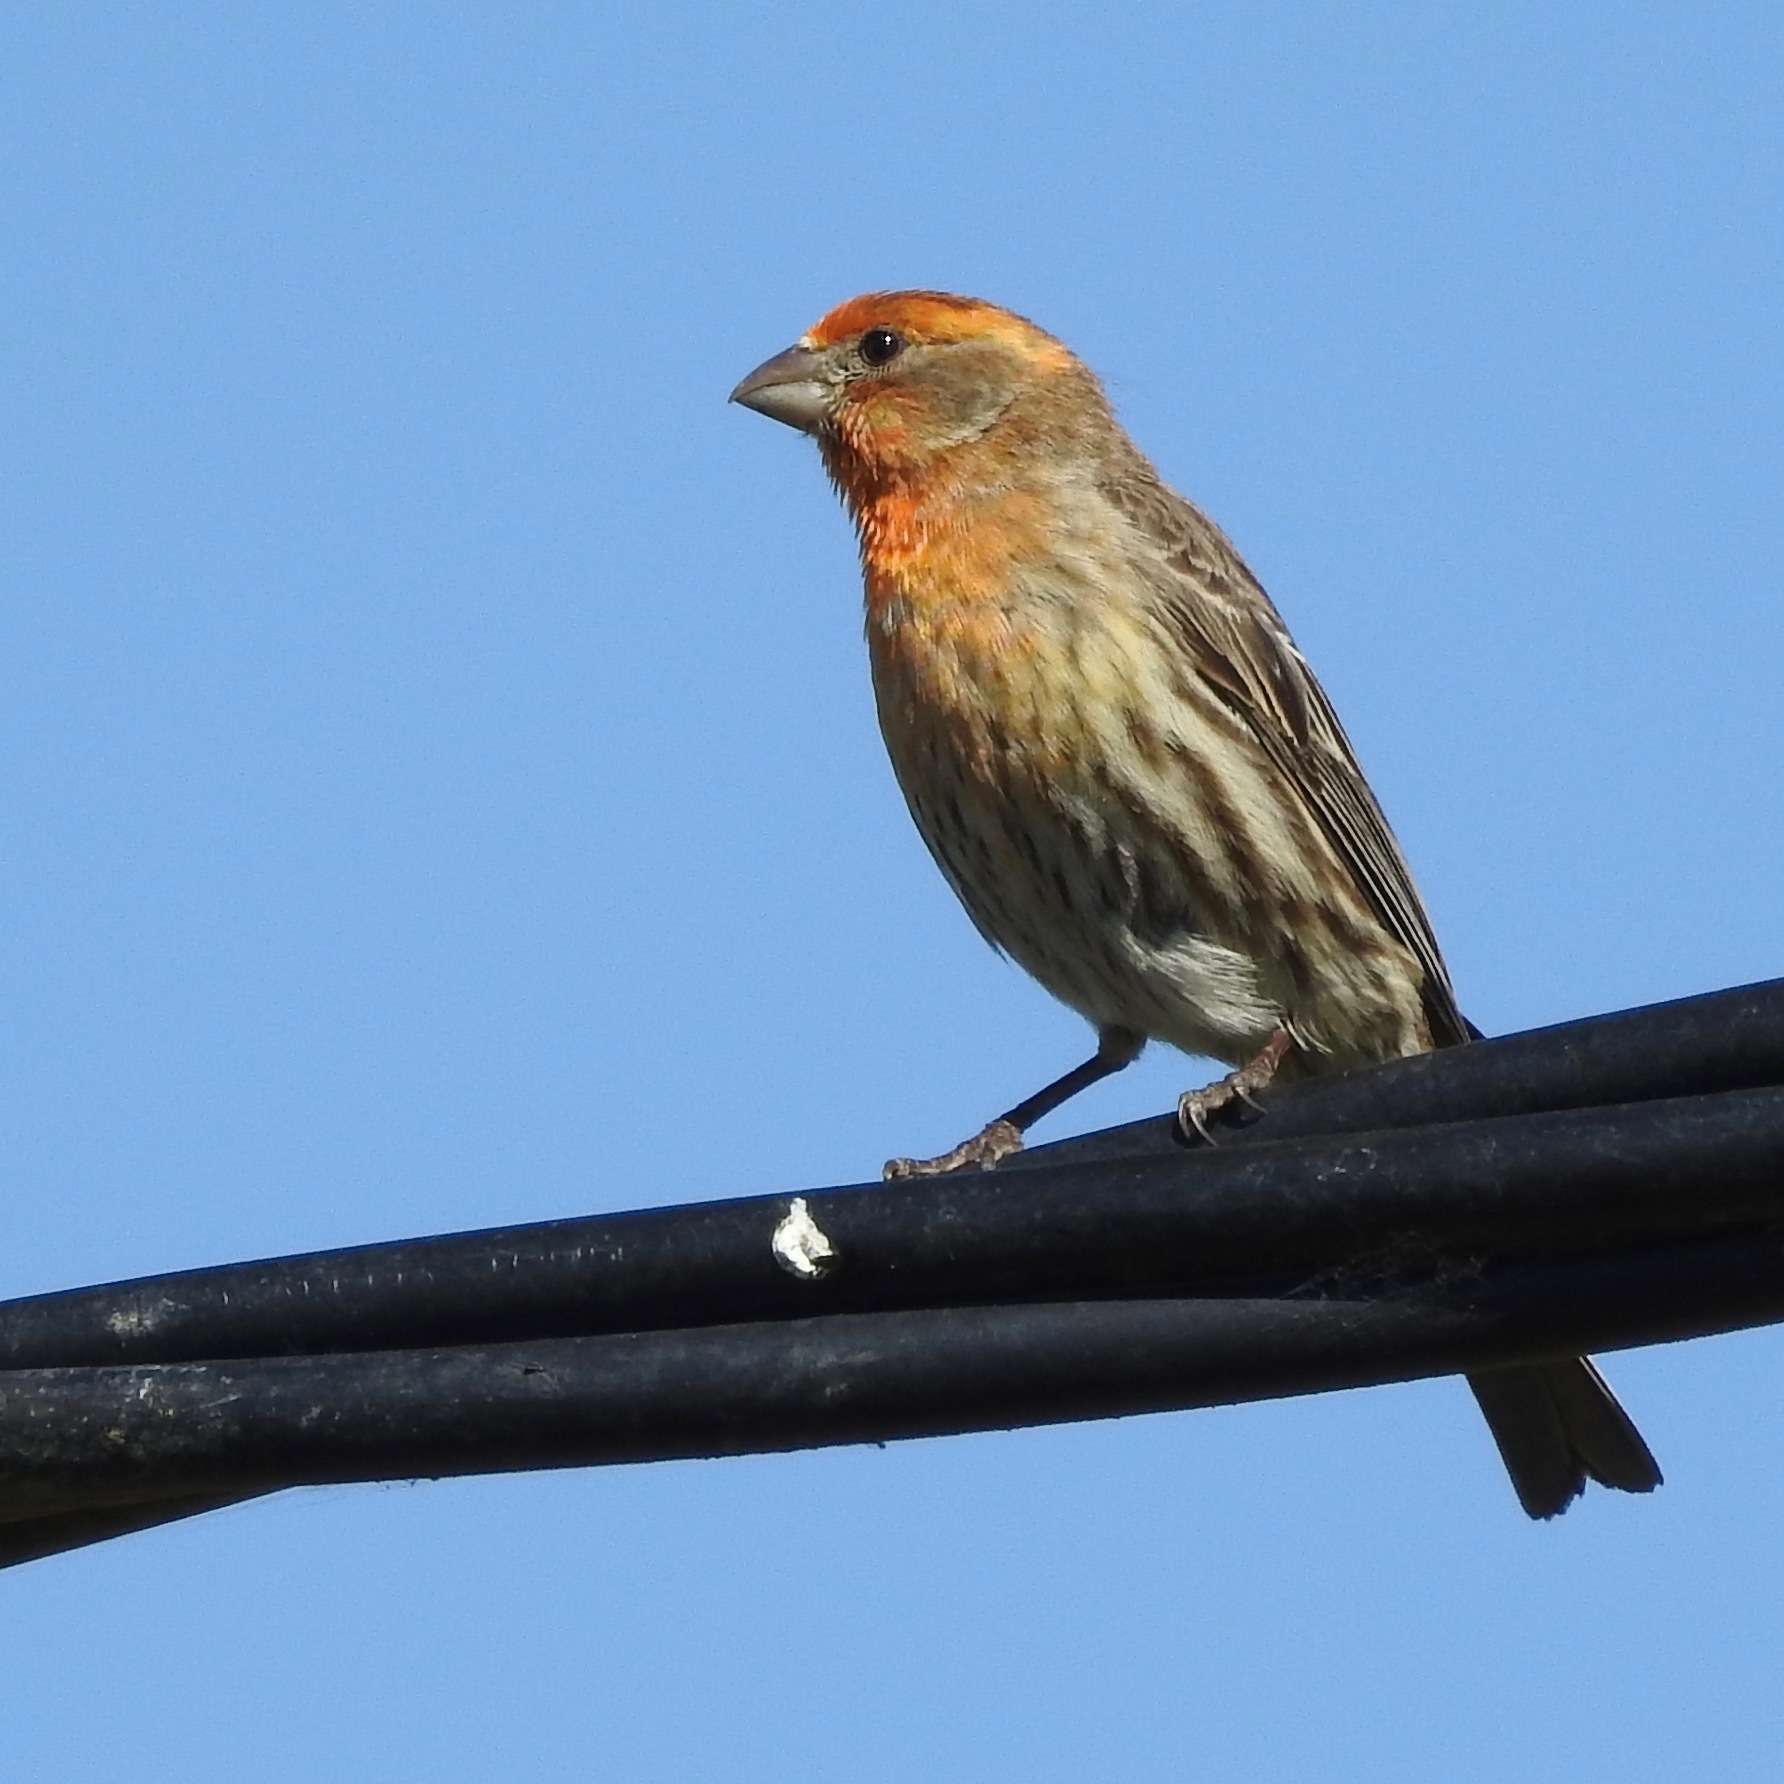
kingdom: Animalia
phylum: Chordata
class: Aves
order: Passeriformes
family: Fringillidae
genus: Haemorhous
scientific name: Haemorhous mexicanus
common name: House finch
